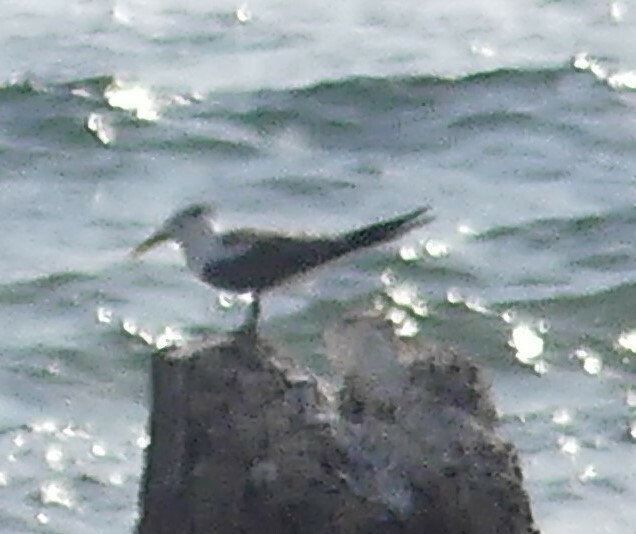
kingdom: Animalia
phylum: Chordata
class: Aves
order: Charadriiformes
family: Laridae
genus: Thalasseus
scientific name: Thalasseus bergii
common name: Greater crested tern
